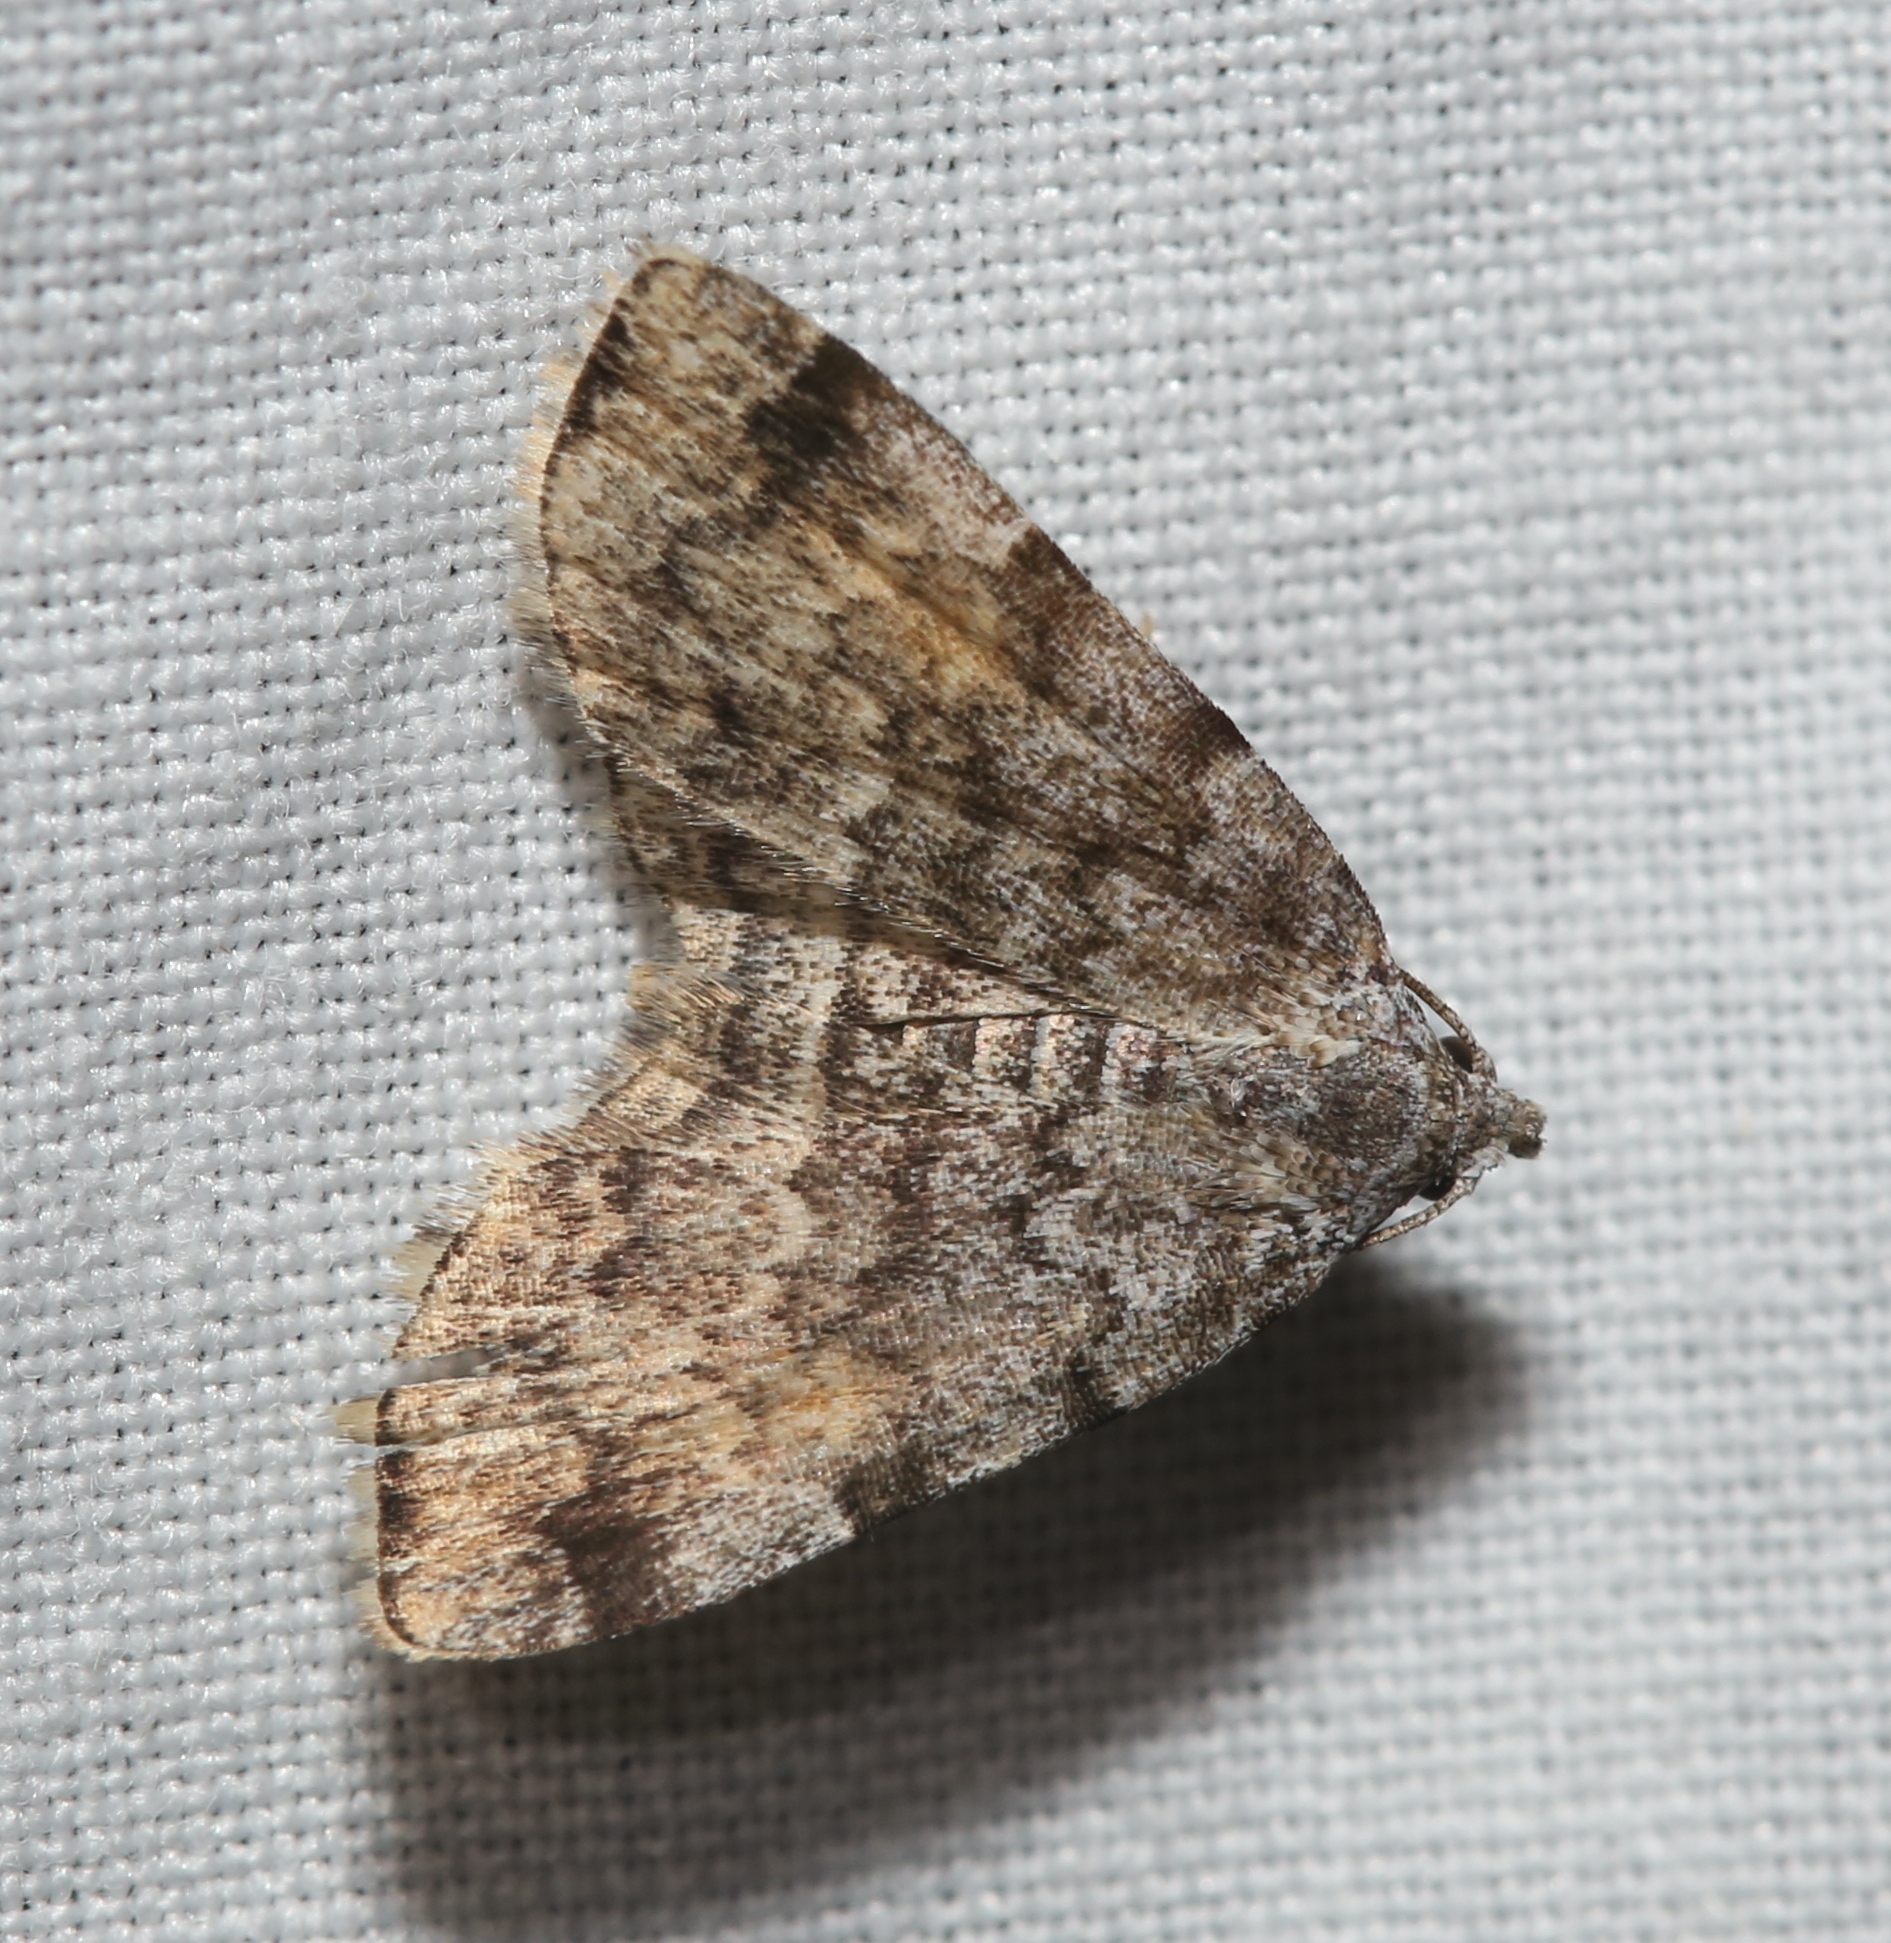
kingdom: Animalia
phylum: Arthropoda
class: Insecta
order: Lepidoptera
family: Erebidae
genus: Idia
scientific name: Idia americalis
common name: American idia moth
